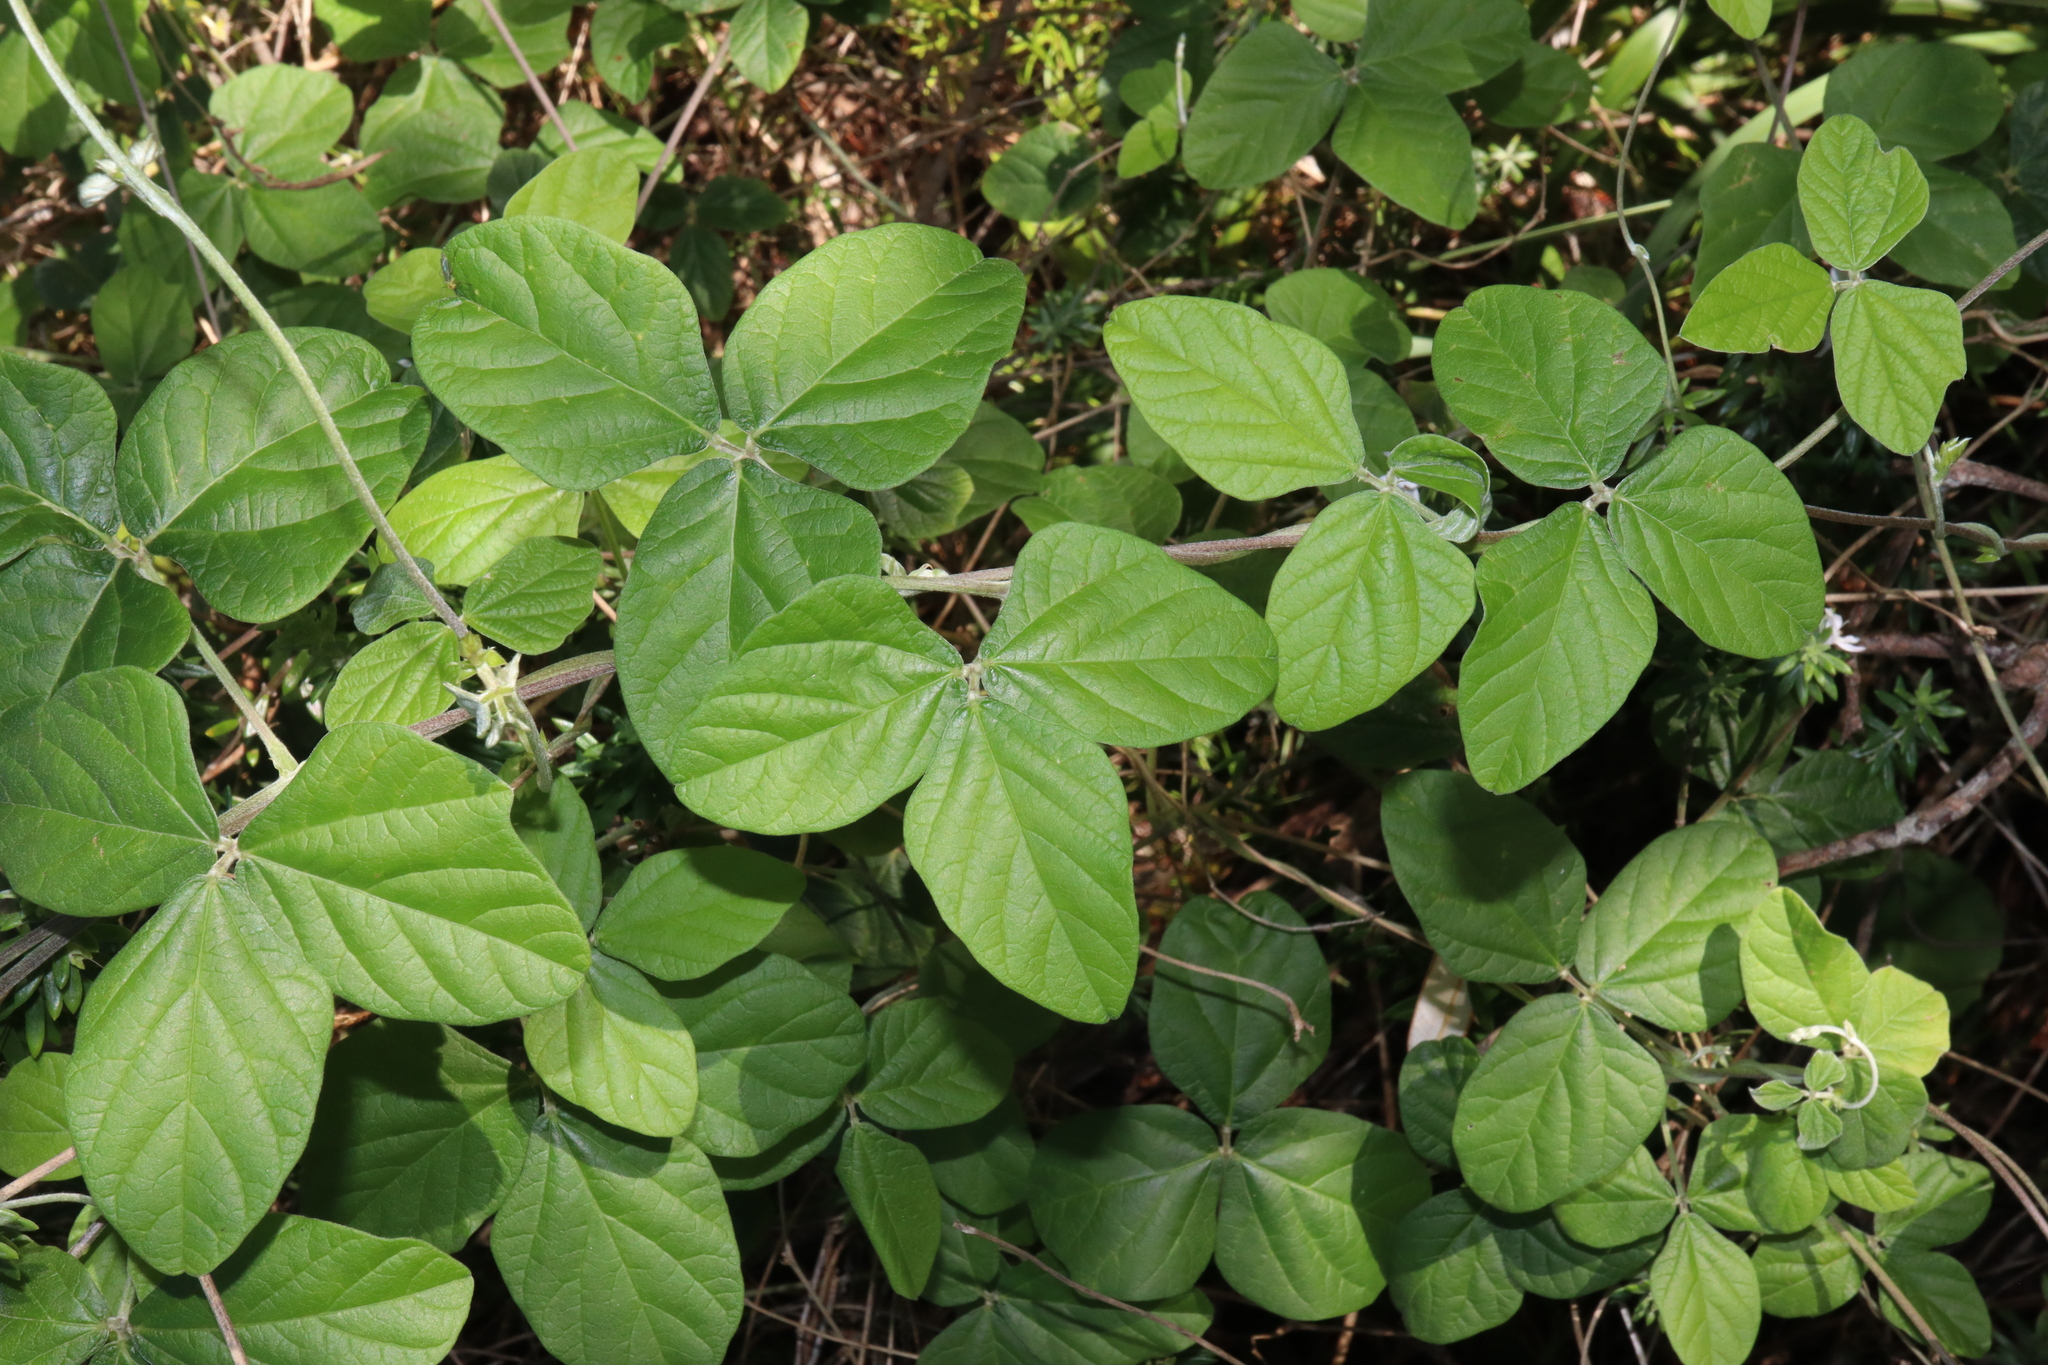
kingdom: Plantae
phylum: Tracheophyta
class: Magnoliopsida
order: Fabales
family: Fabaceae
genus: Macroptilium
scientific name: Macroptilium atropurpureum
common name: Purple bushbean
